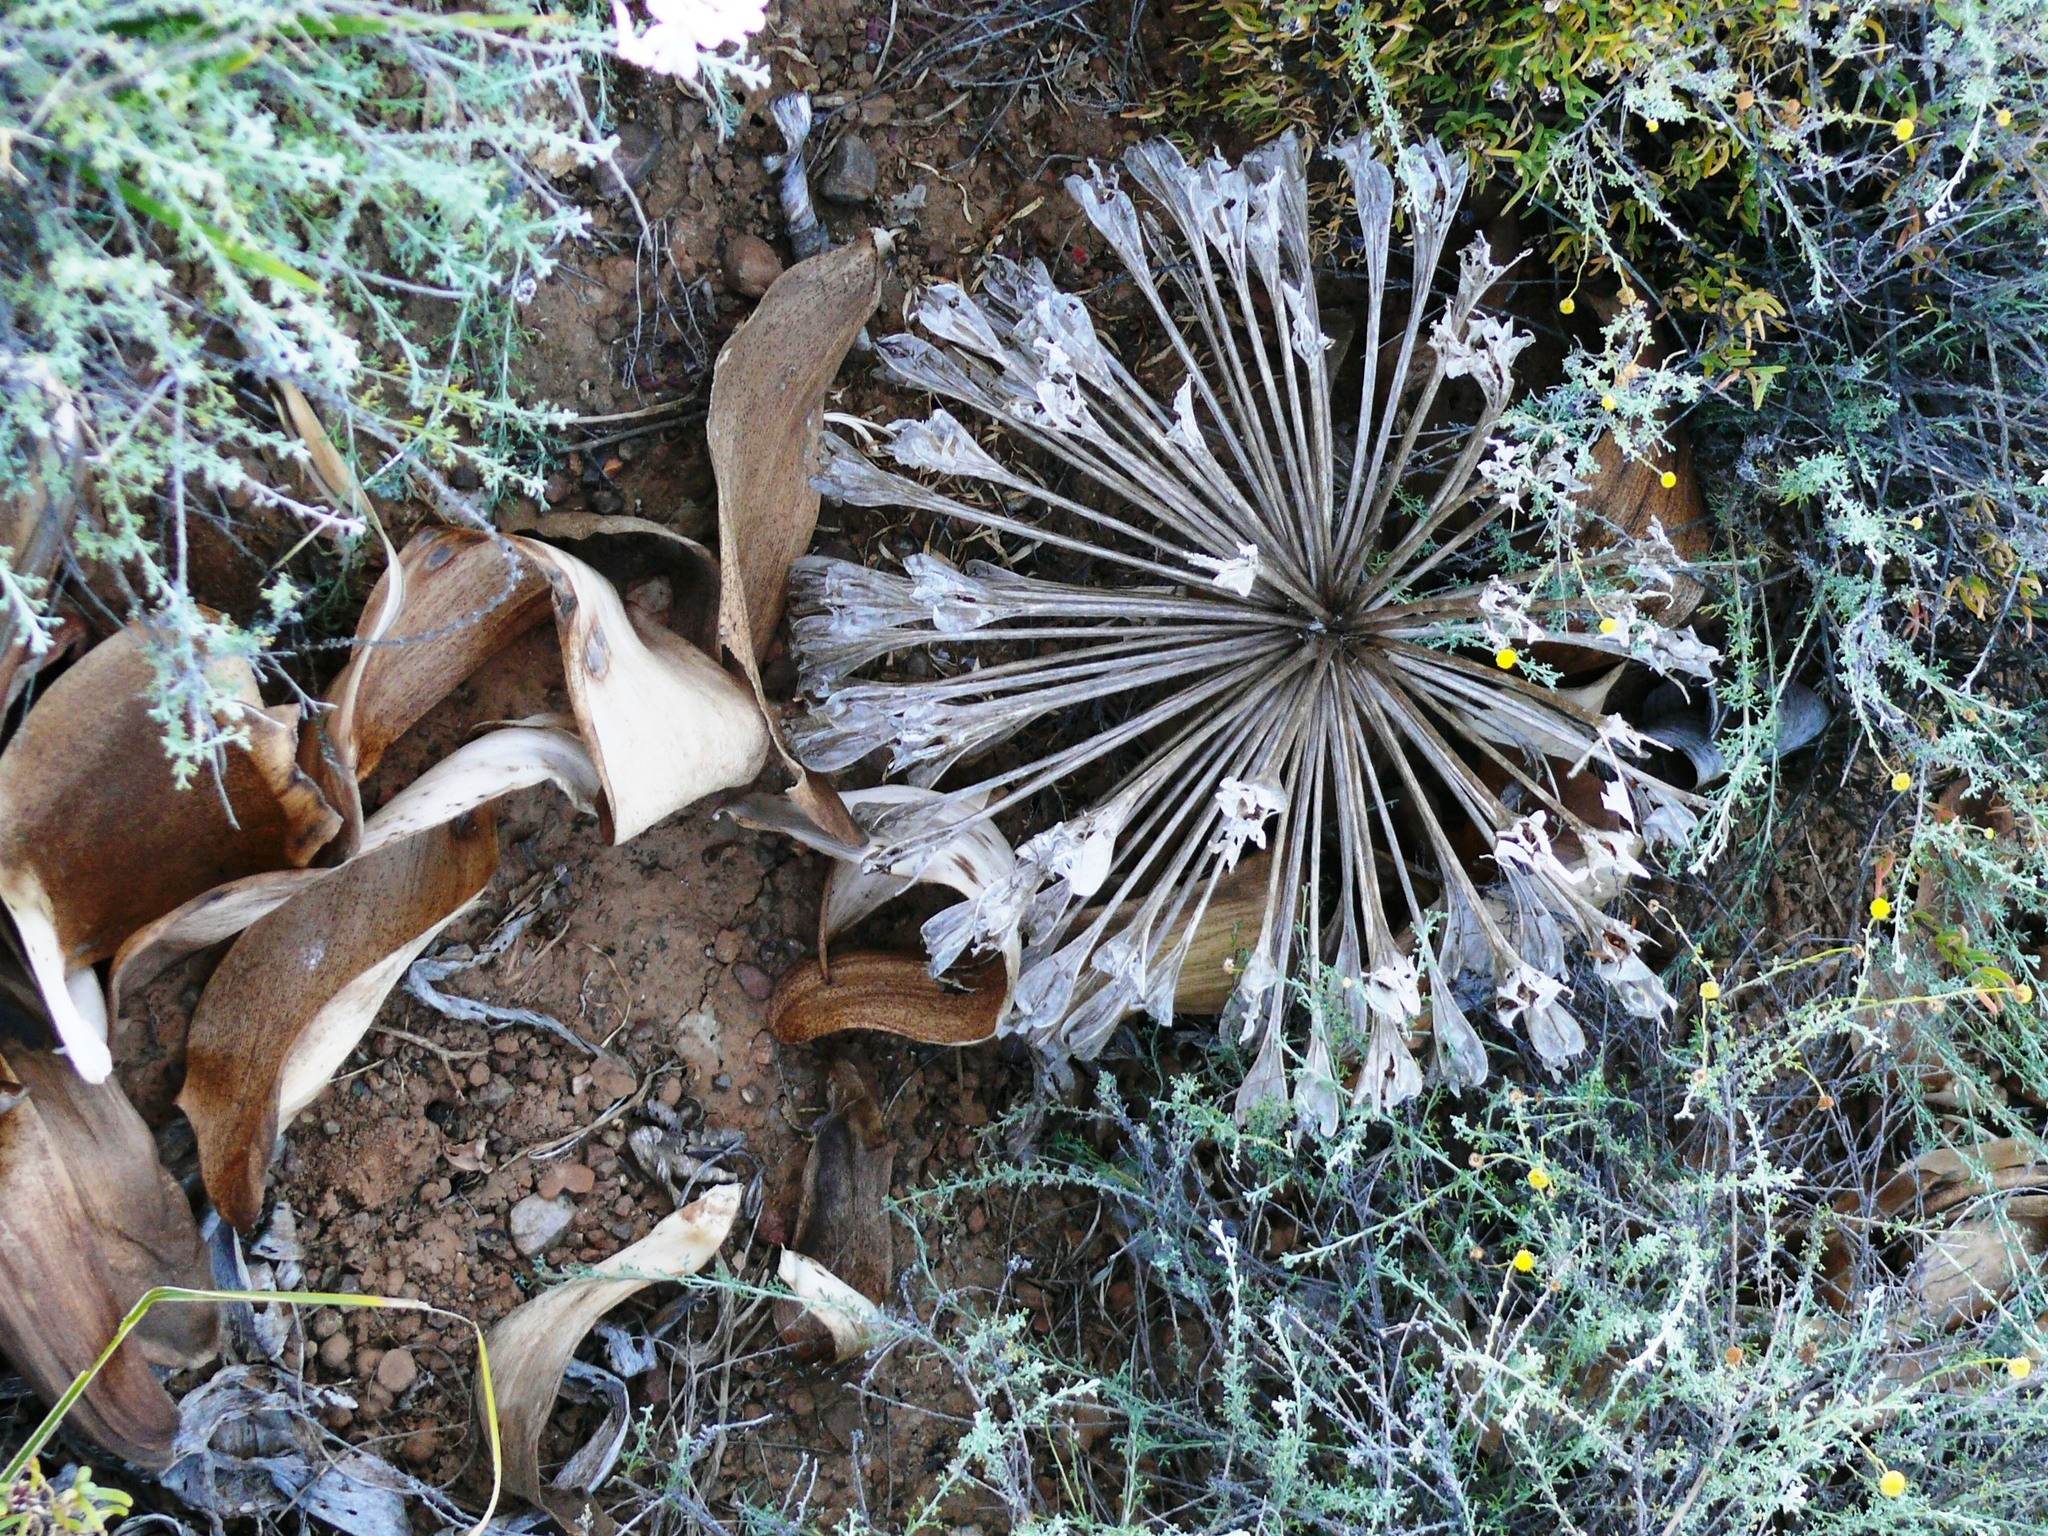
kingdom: Plantae
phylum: Tracheophyta
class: Liliopsida
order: Asparagales
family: Amaryllidaceae
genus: Brunsvigia
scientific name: Brunsvigia bosmaniae
